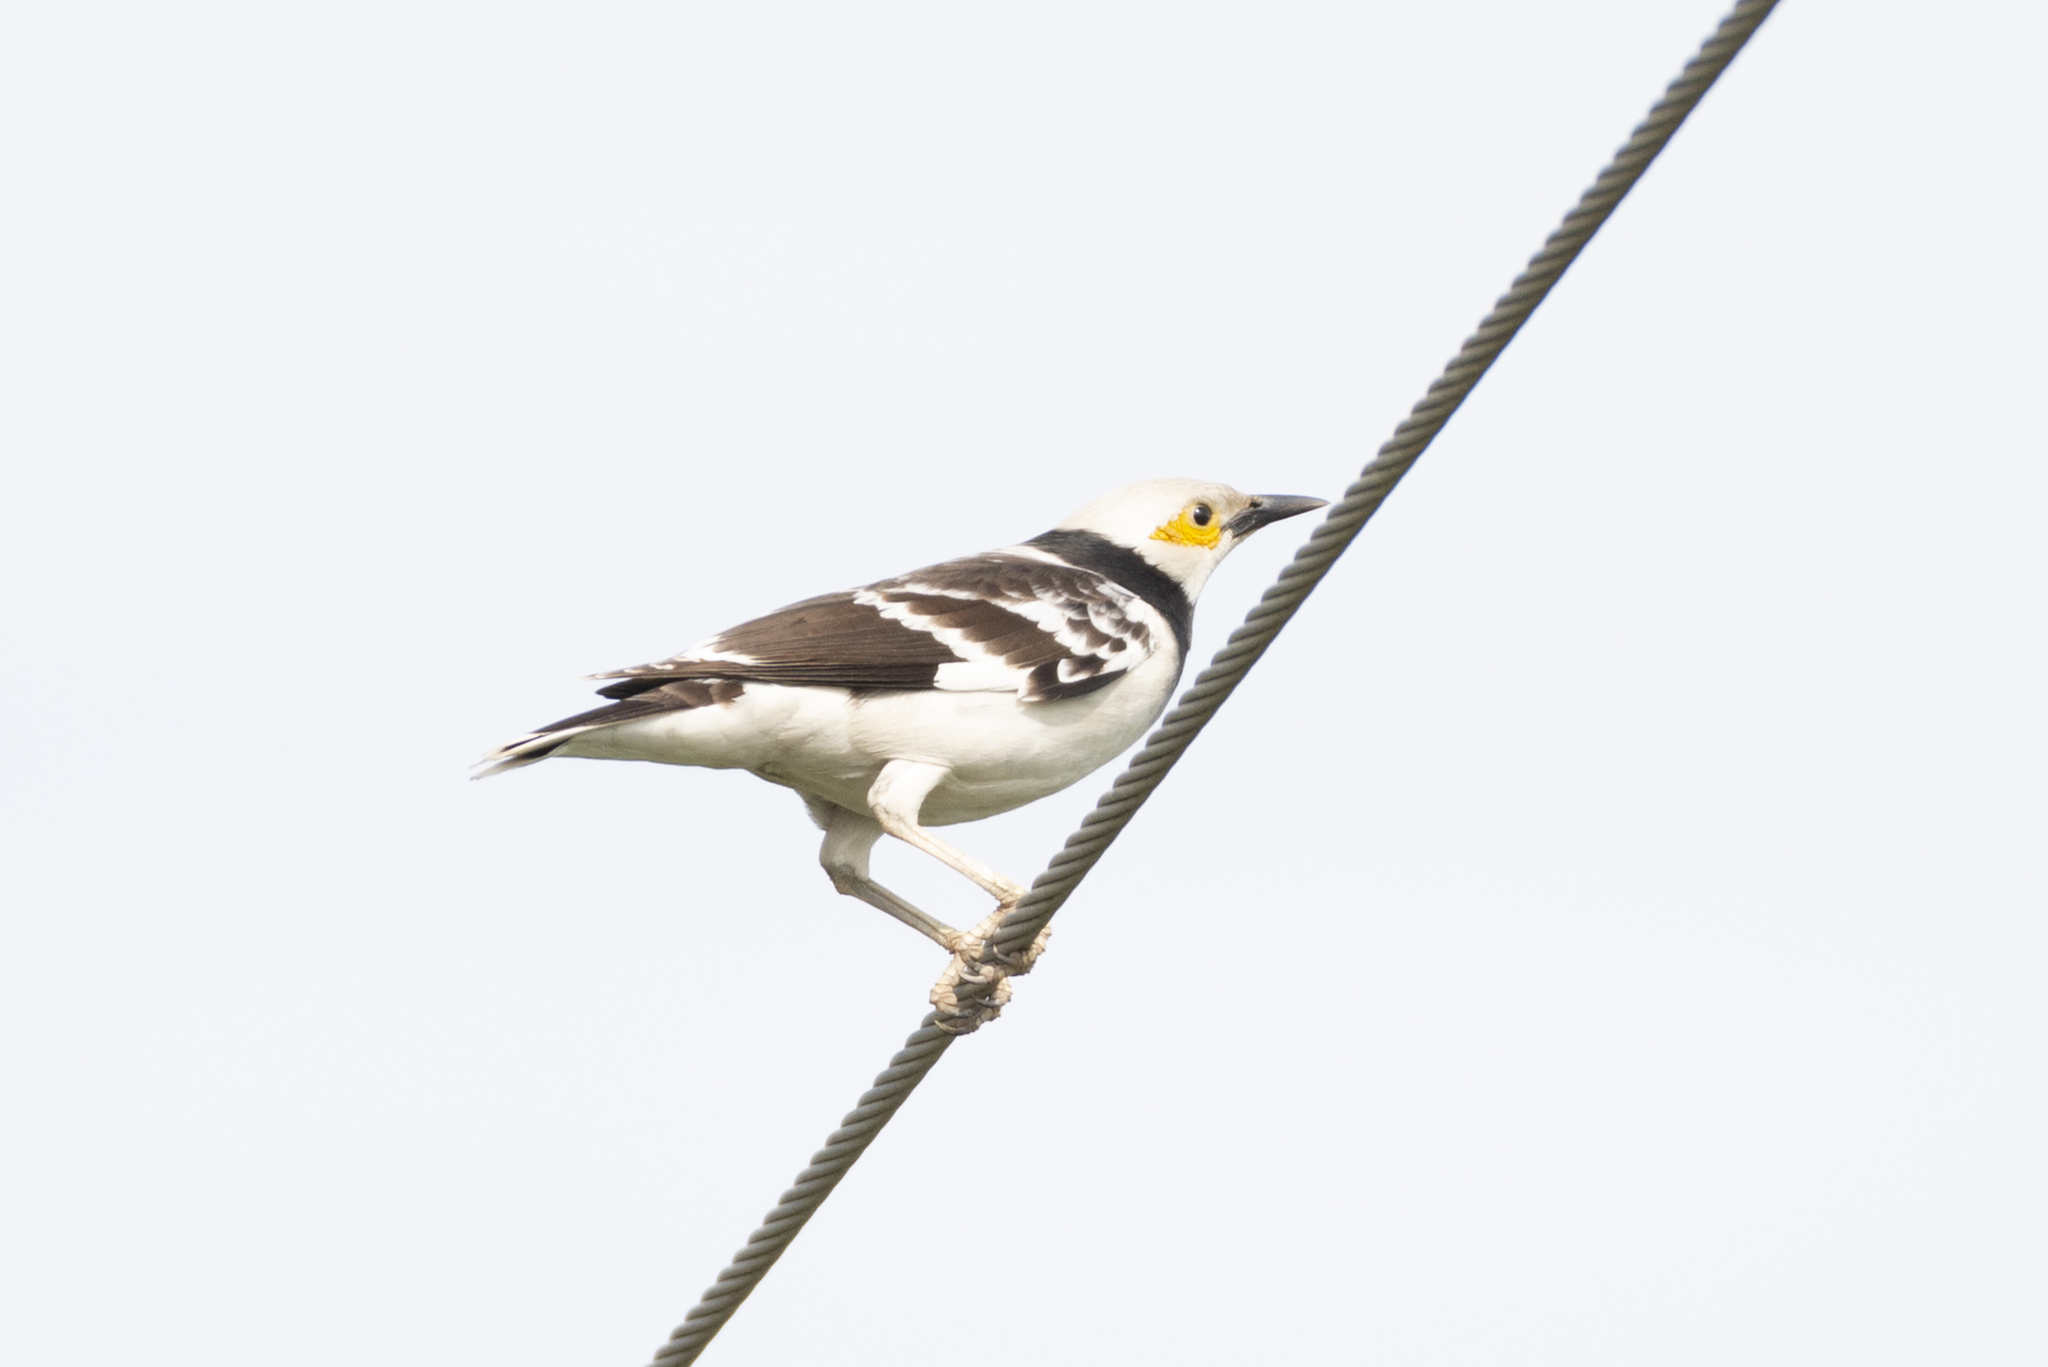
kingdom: Animalia
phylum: Chordata
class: Aves
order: Passeriformes
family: Sturnidae
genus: Gracupica
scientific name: Gracupica nigricollis
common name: Black-collared starling
